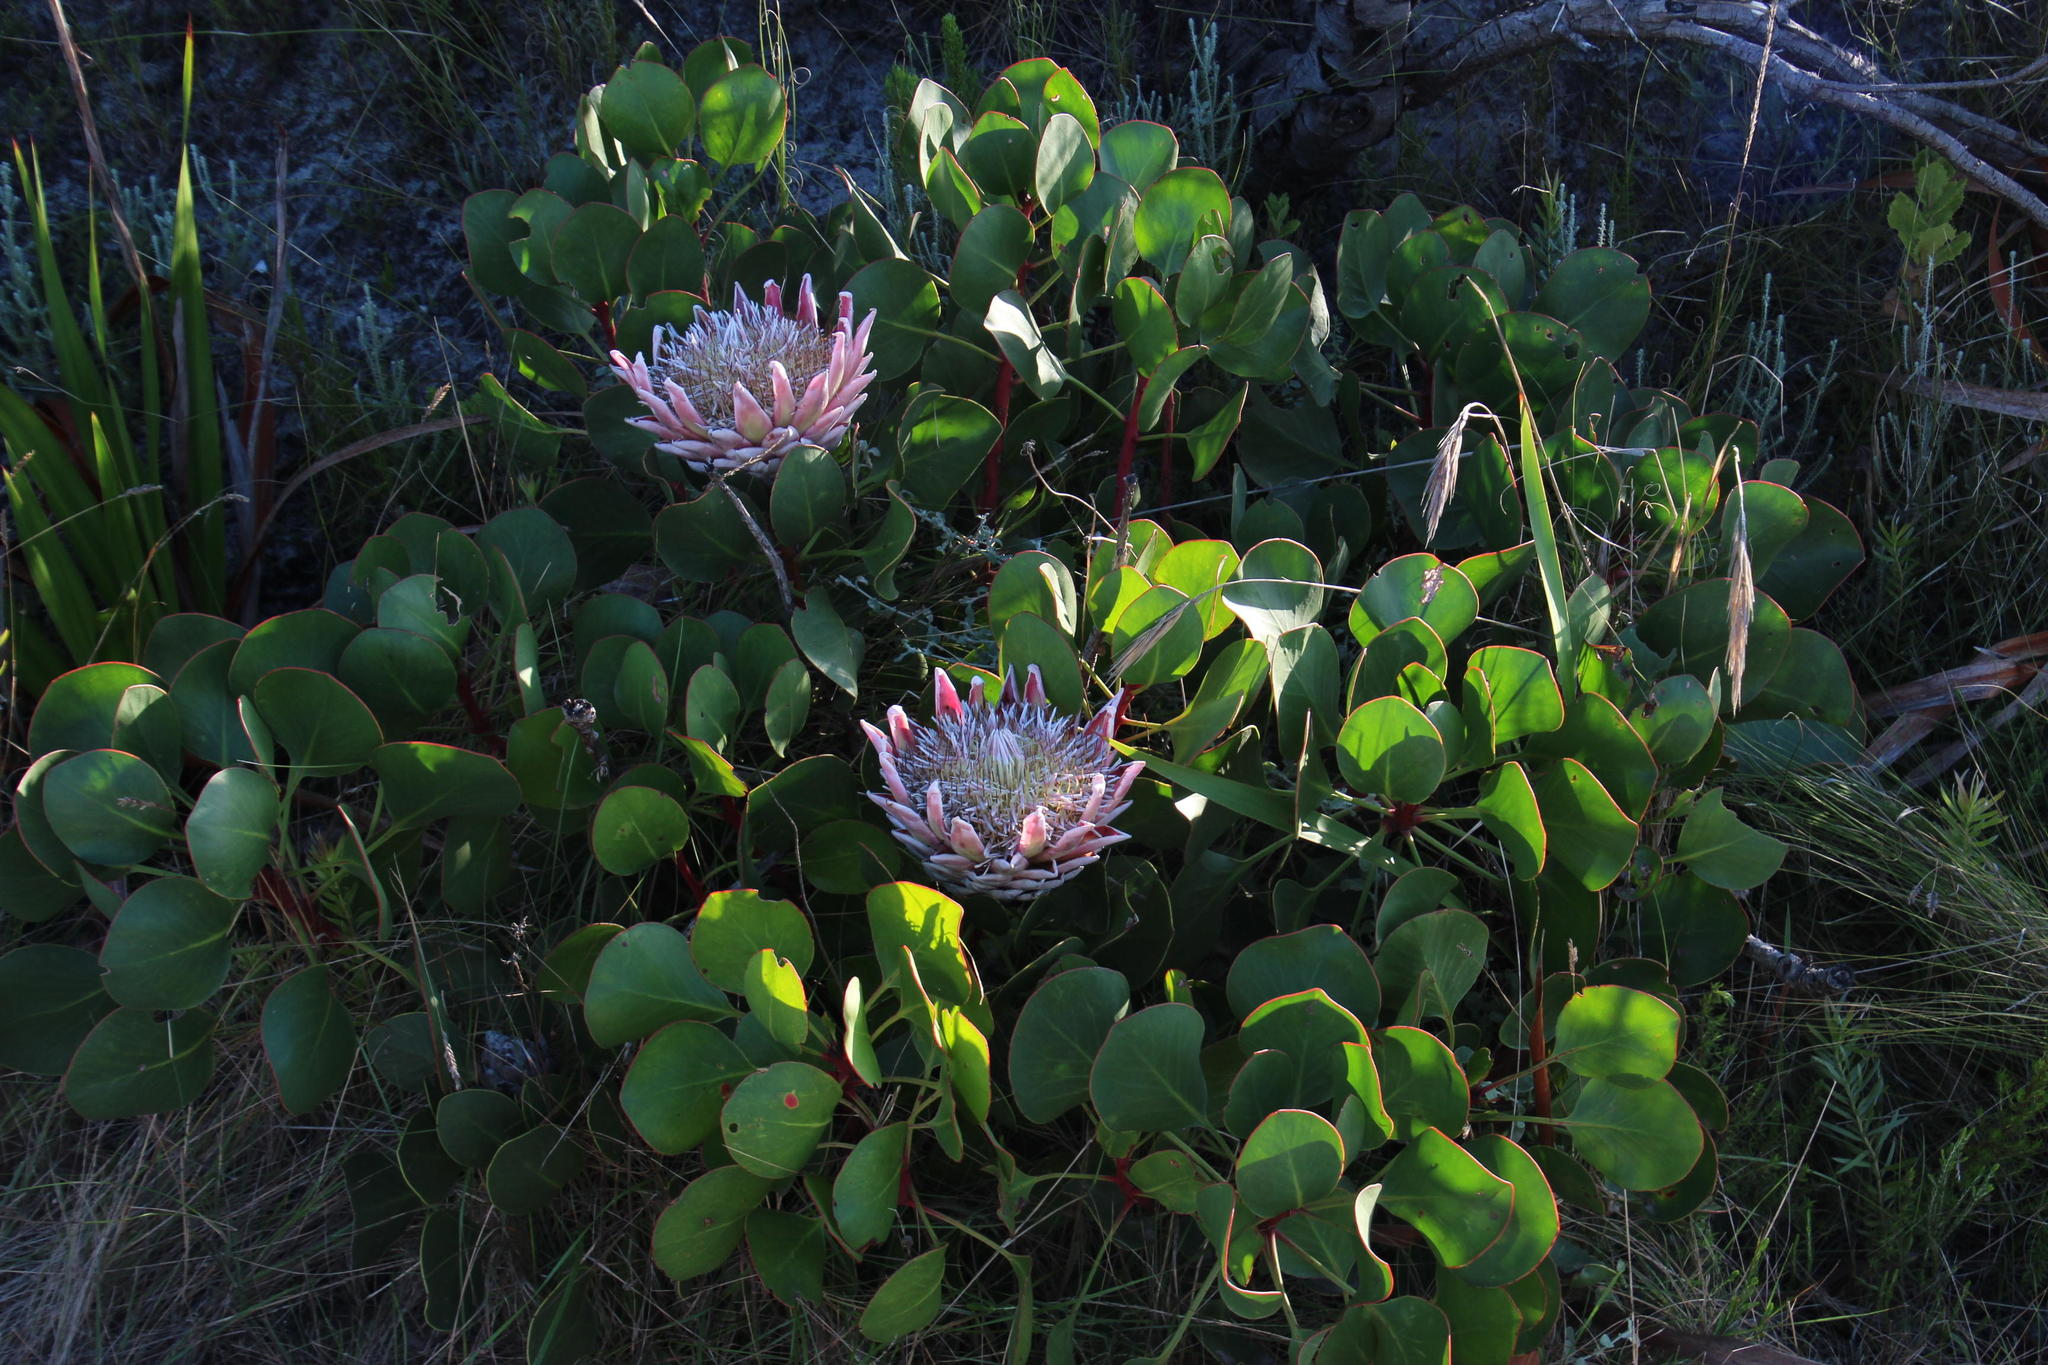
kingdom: Plantae
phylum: Tracheophyta
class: Magnoliopsida
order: Proteales
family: Proteaceae
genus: Protea
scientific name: Protea cynaroides
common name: King protea
